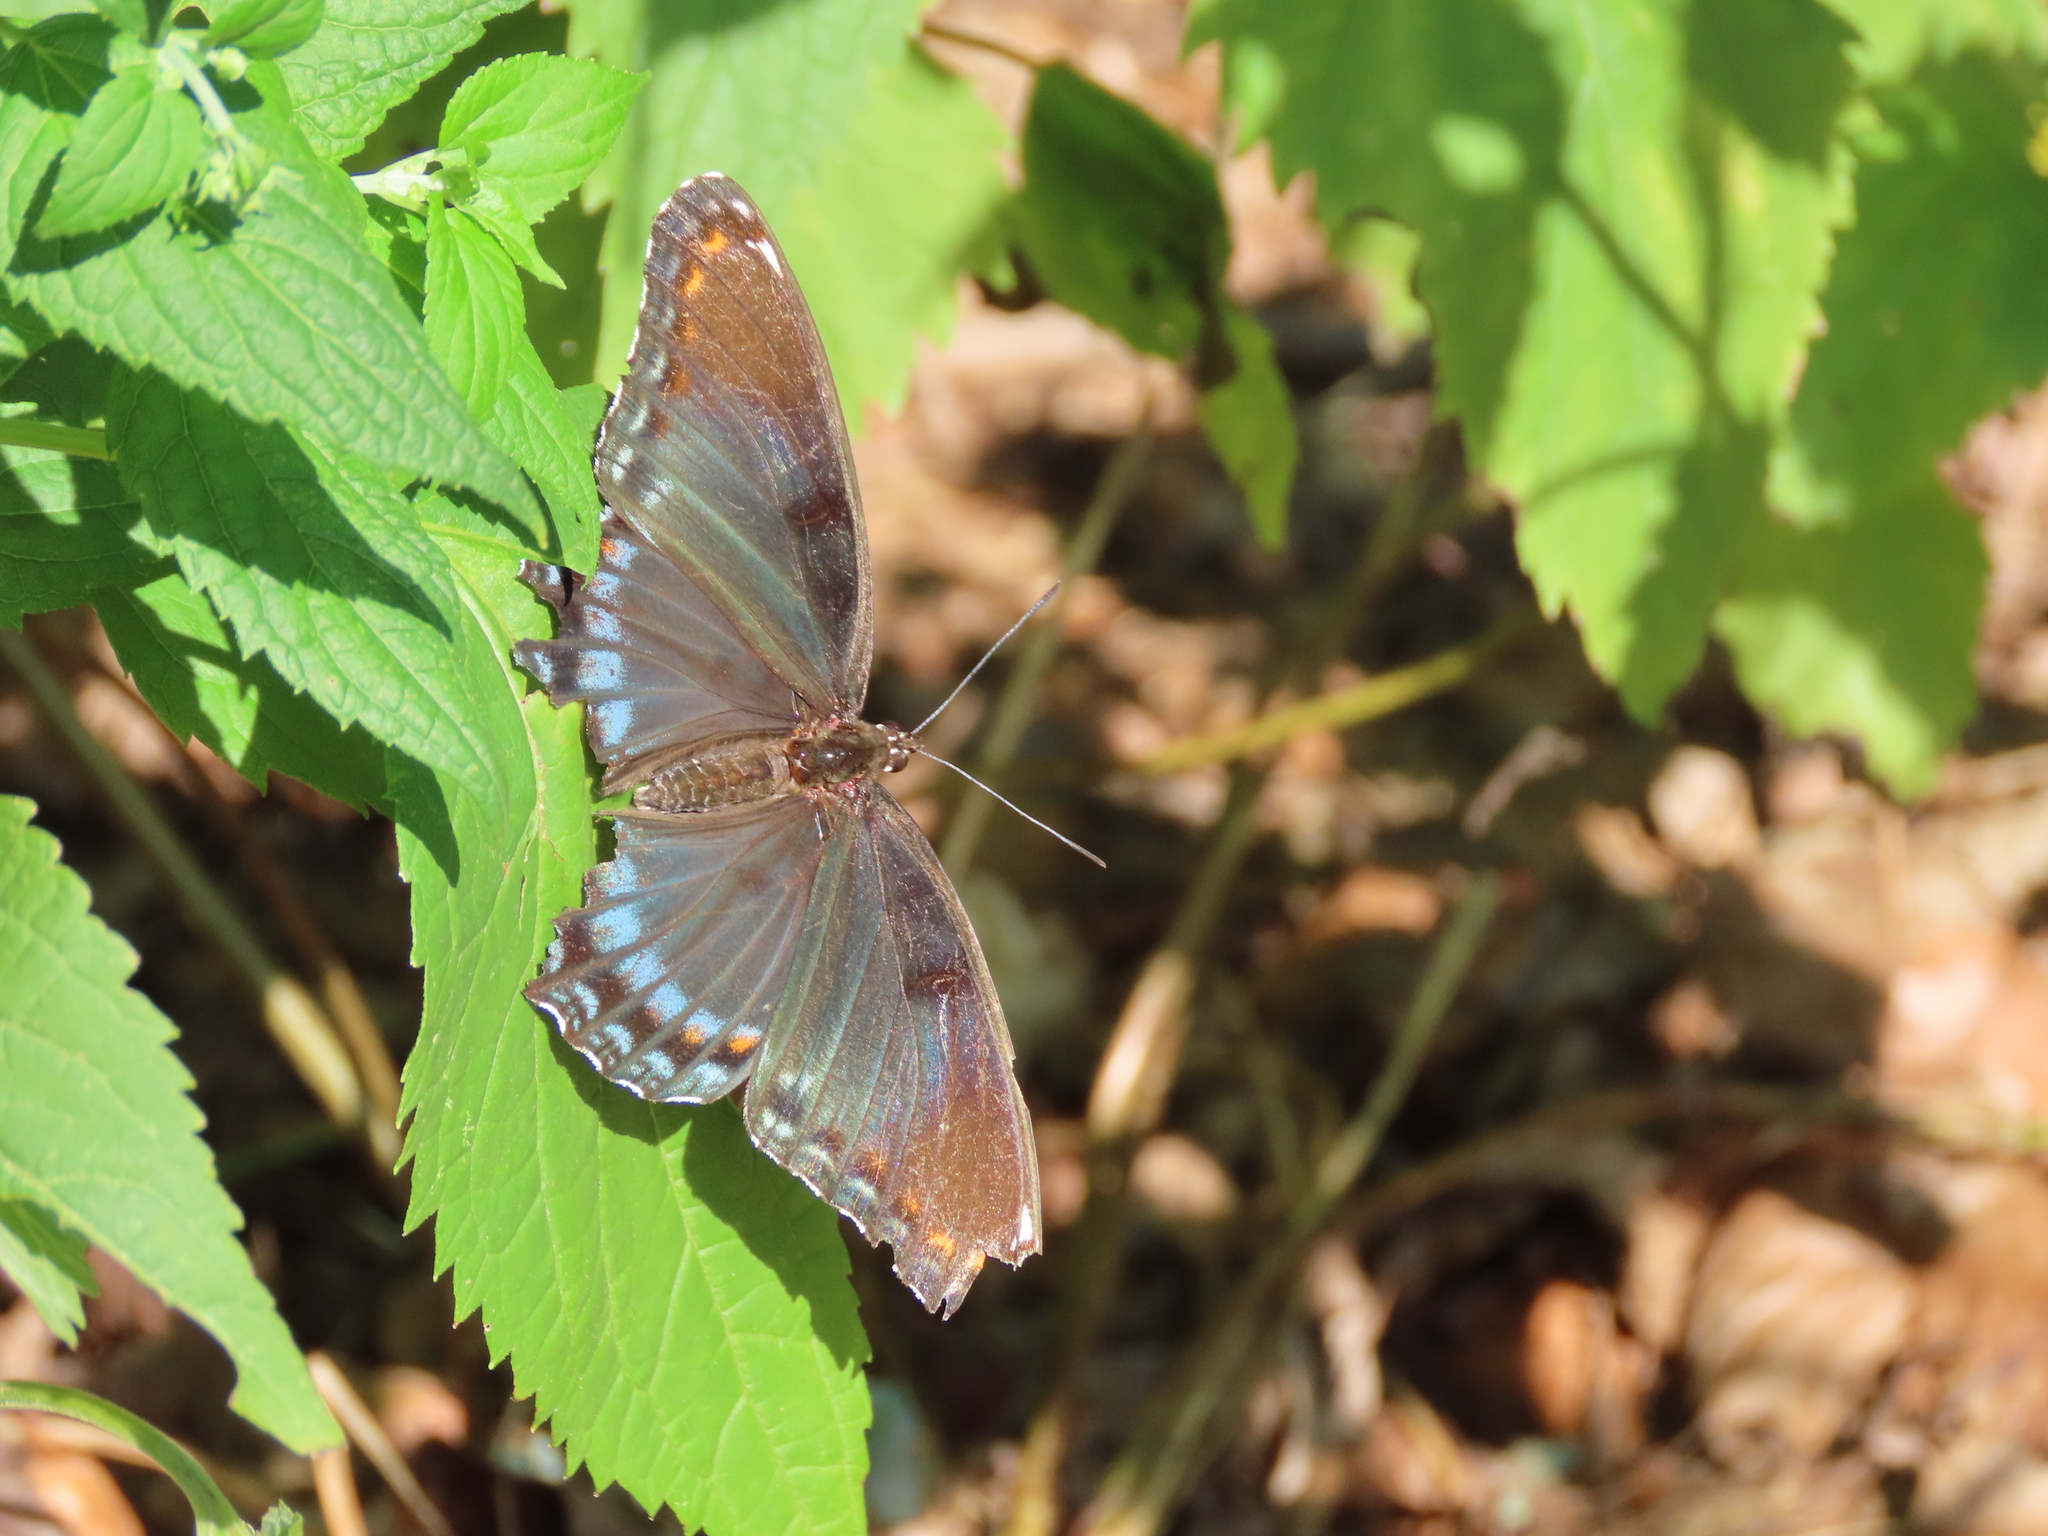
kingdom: Animalia
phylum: Arthropoda
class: Insecta
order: Lepidoptera
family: Nymphalidae
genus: Limenitis
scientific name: Limenitis astyanax
